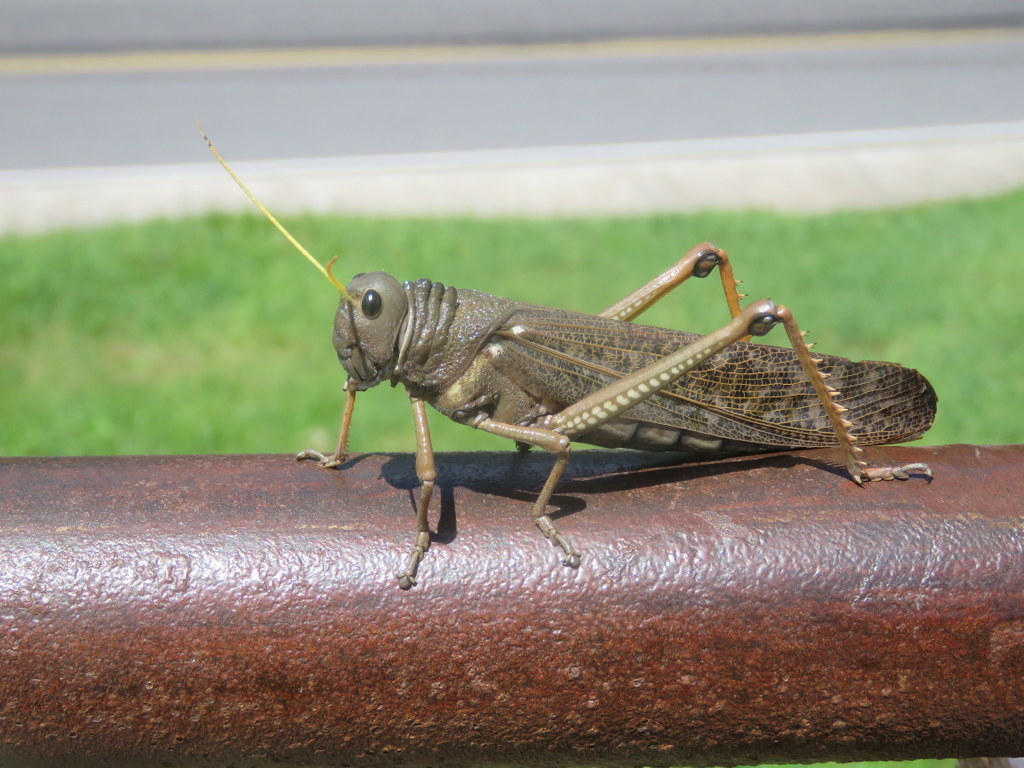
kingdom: Animalia
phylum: Arthropoda
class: Insecta
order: Orthoptera
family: Romaleidae
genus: Tropidacris
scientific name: Tropidacris collaris
